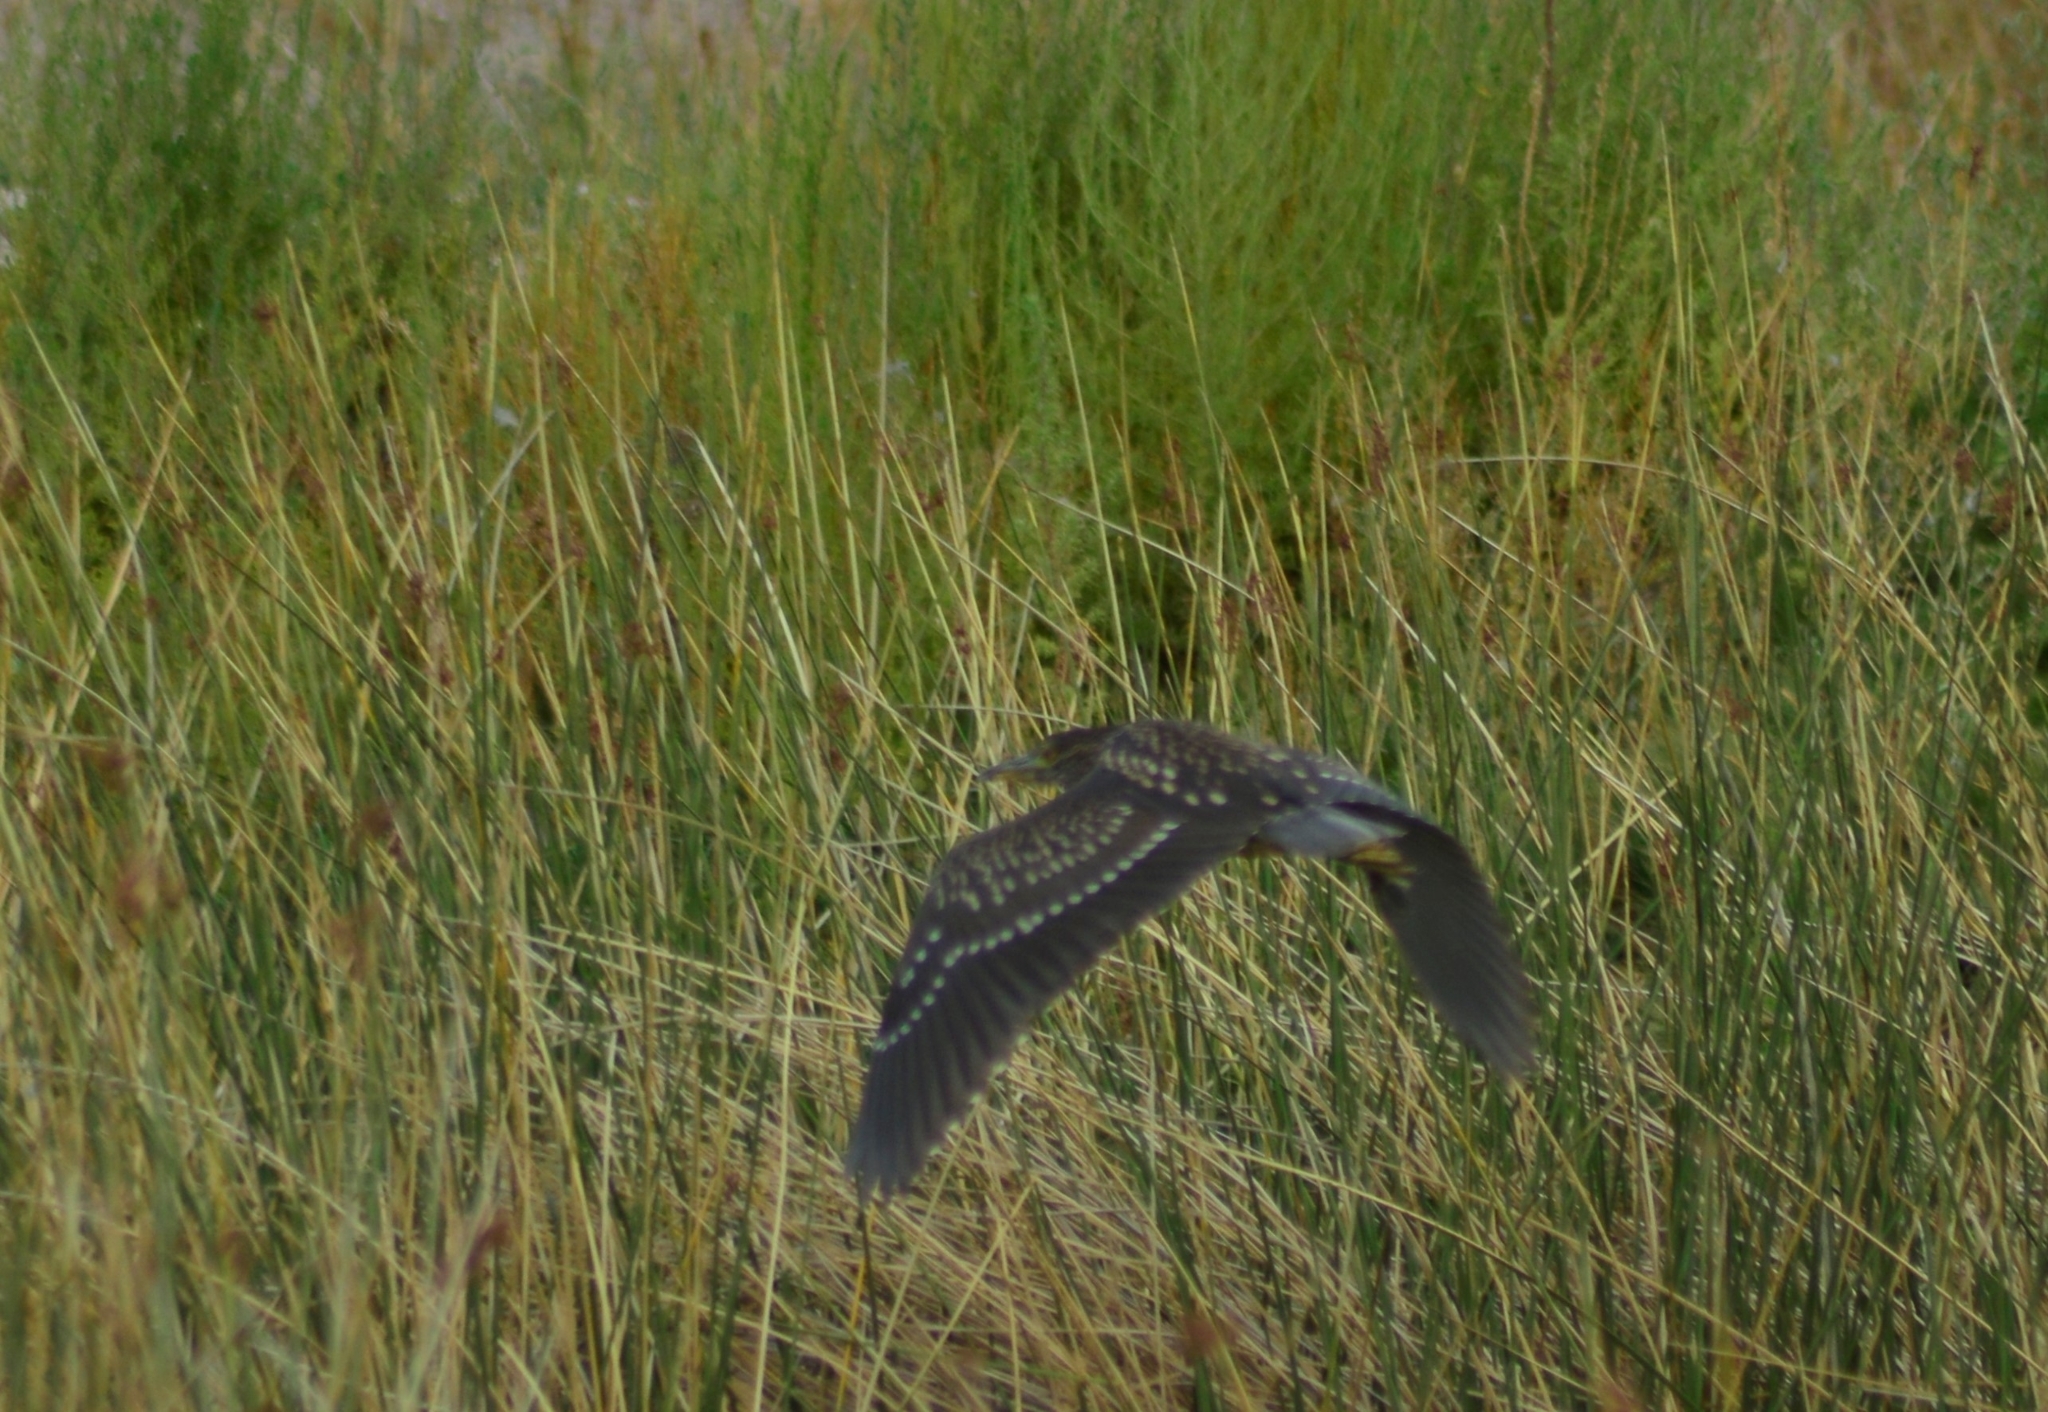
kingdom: Animalia
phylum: Chordata
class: Aves
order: Pelecaniformes
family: Ardeidae
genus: Nycticorax
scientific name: Nycticorax nycticorax
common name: Black-crowned night heron
